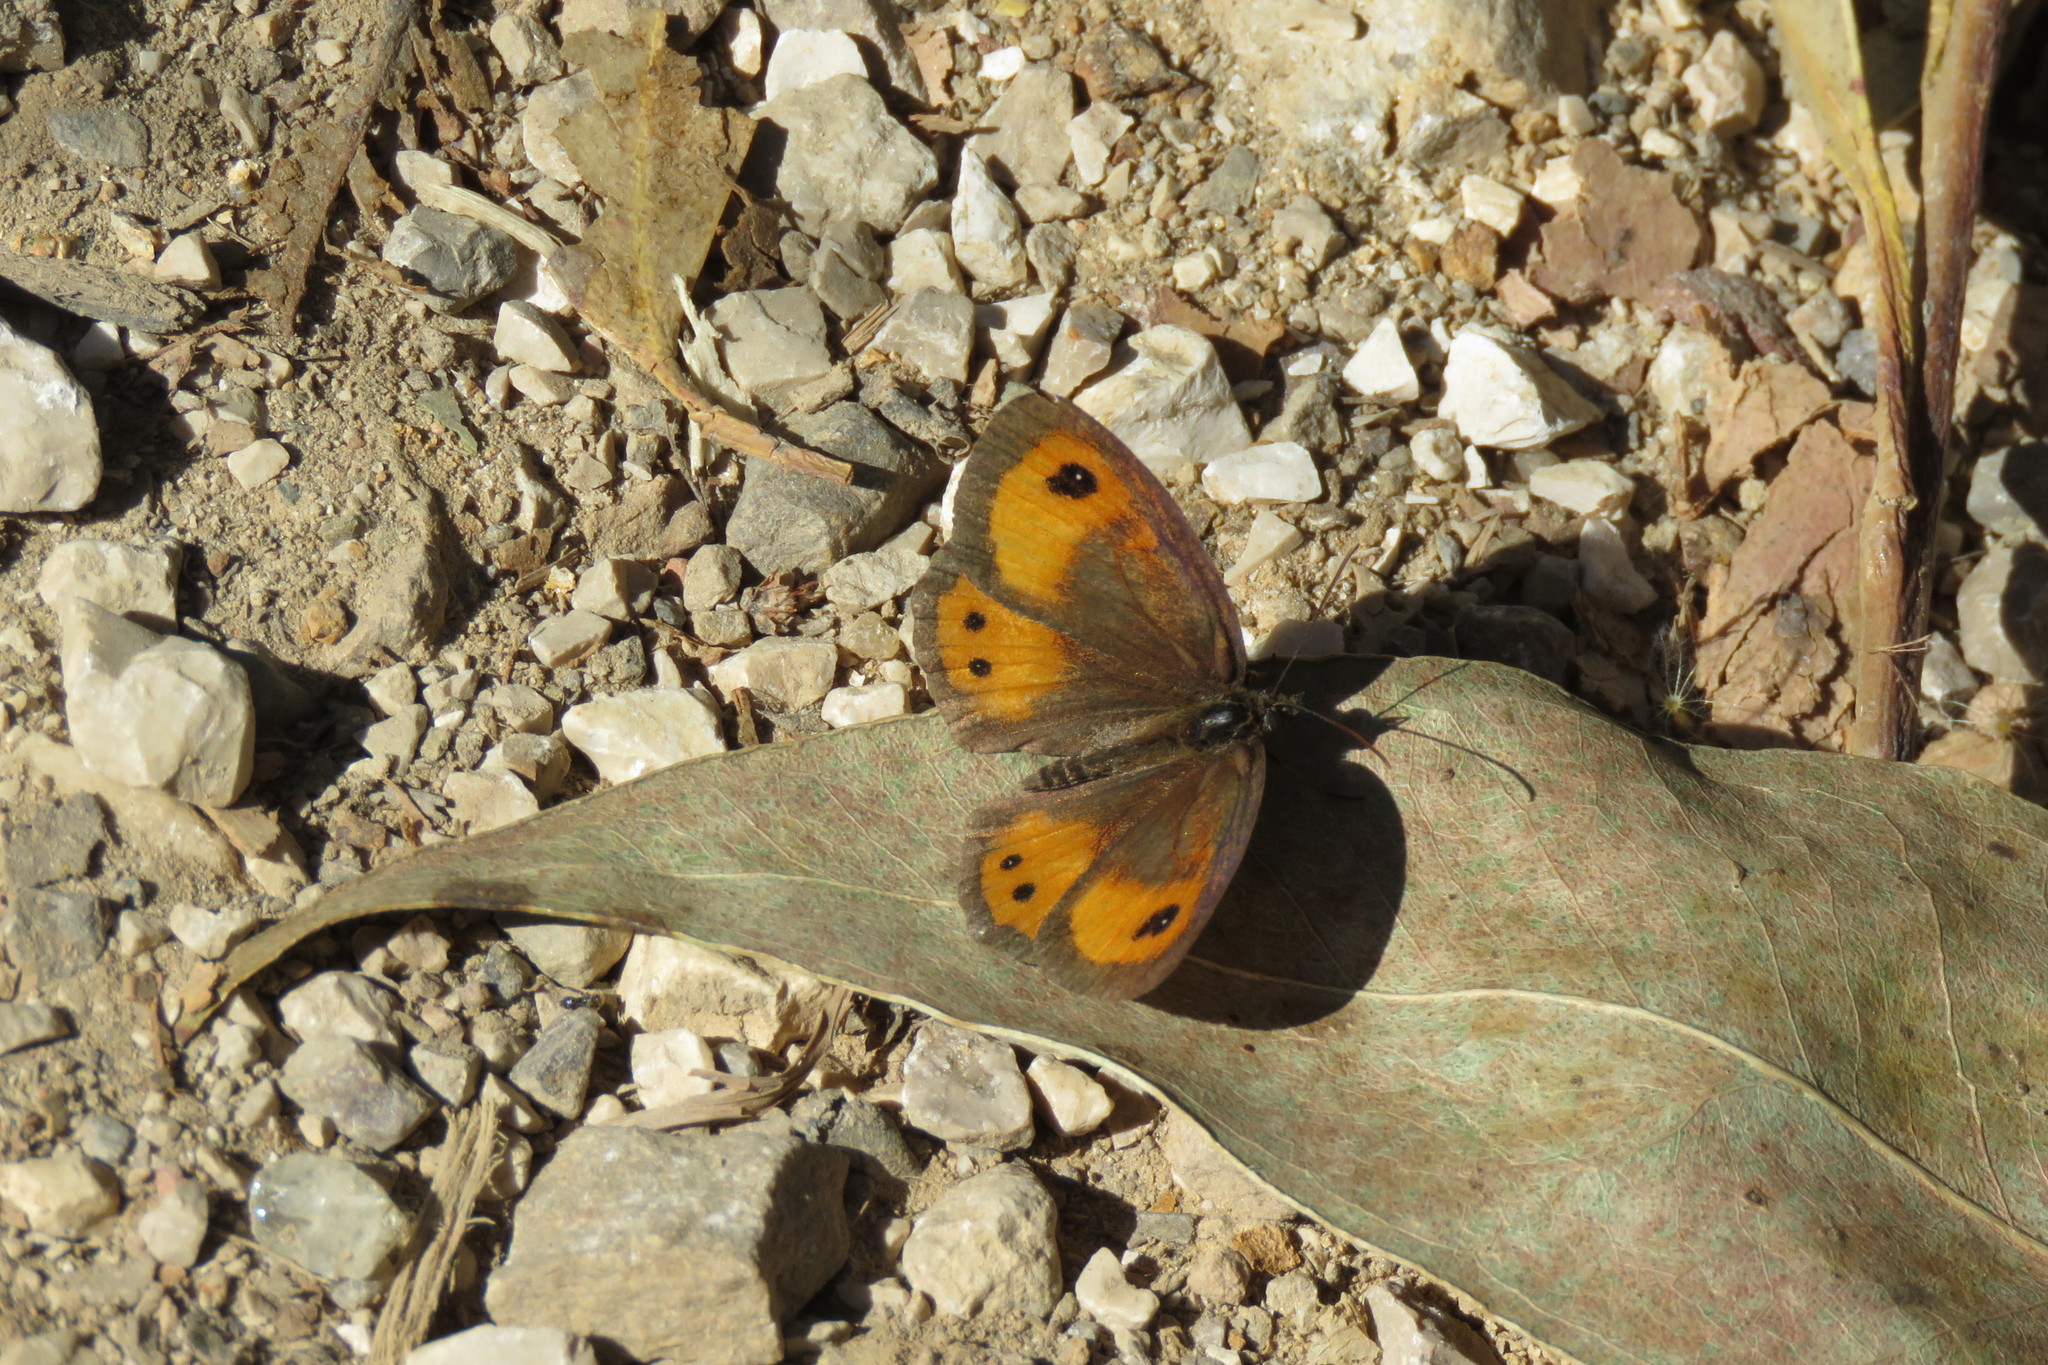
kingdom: Animalia
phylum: Arthropoda
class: Insecta
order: Lepidoptera
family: Nymphalidae
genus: Pyronia
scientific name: Pyronia bathseba
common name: Spanish gatekeeper
